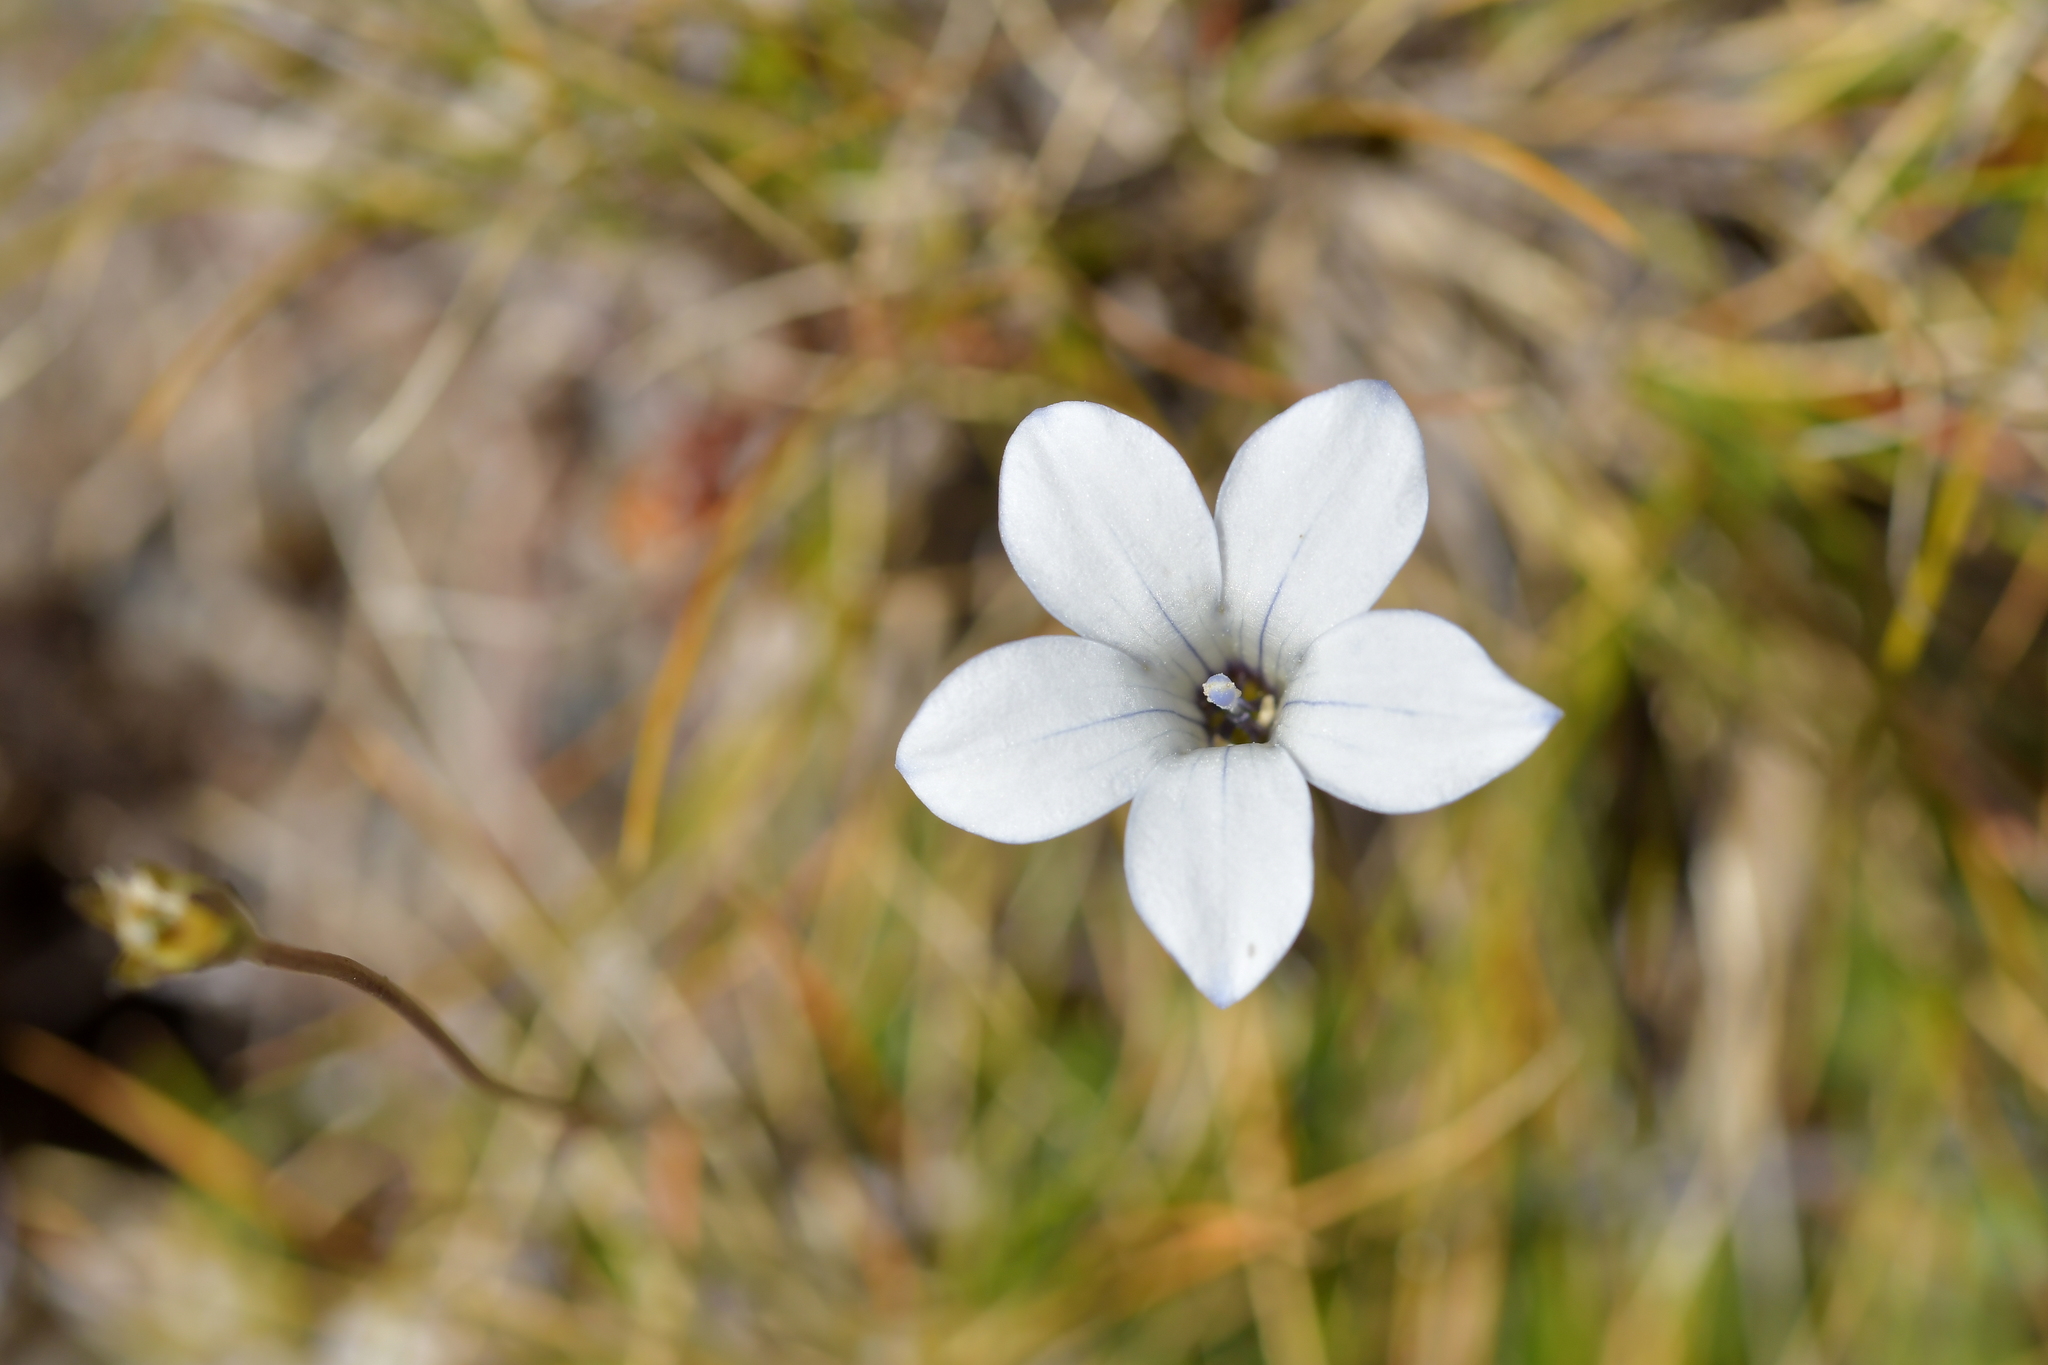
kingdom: Plantae
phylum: Tracheophyta
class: Magnoliopsida
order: Asterales
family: Campanulaceae
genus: Wahlenbergia
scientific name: Wahlenbergia albomarginata
